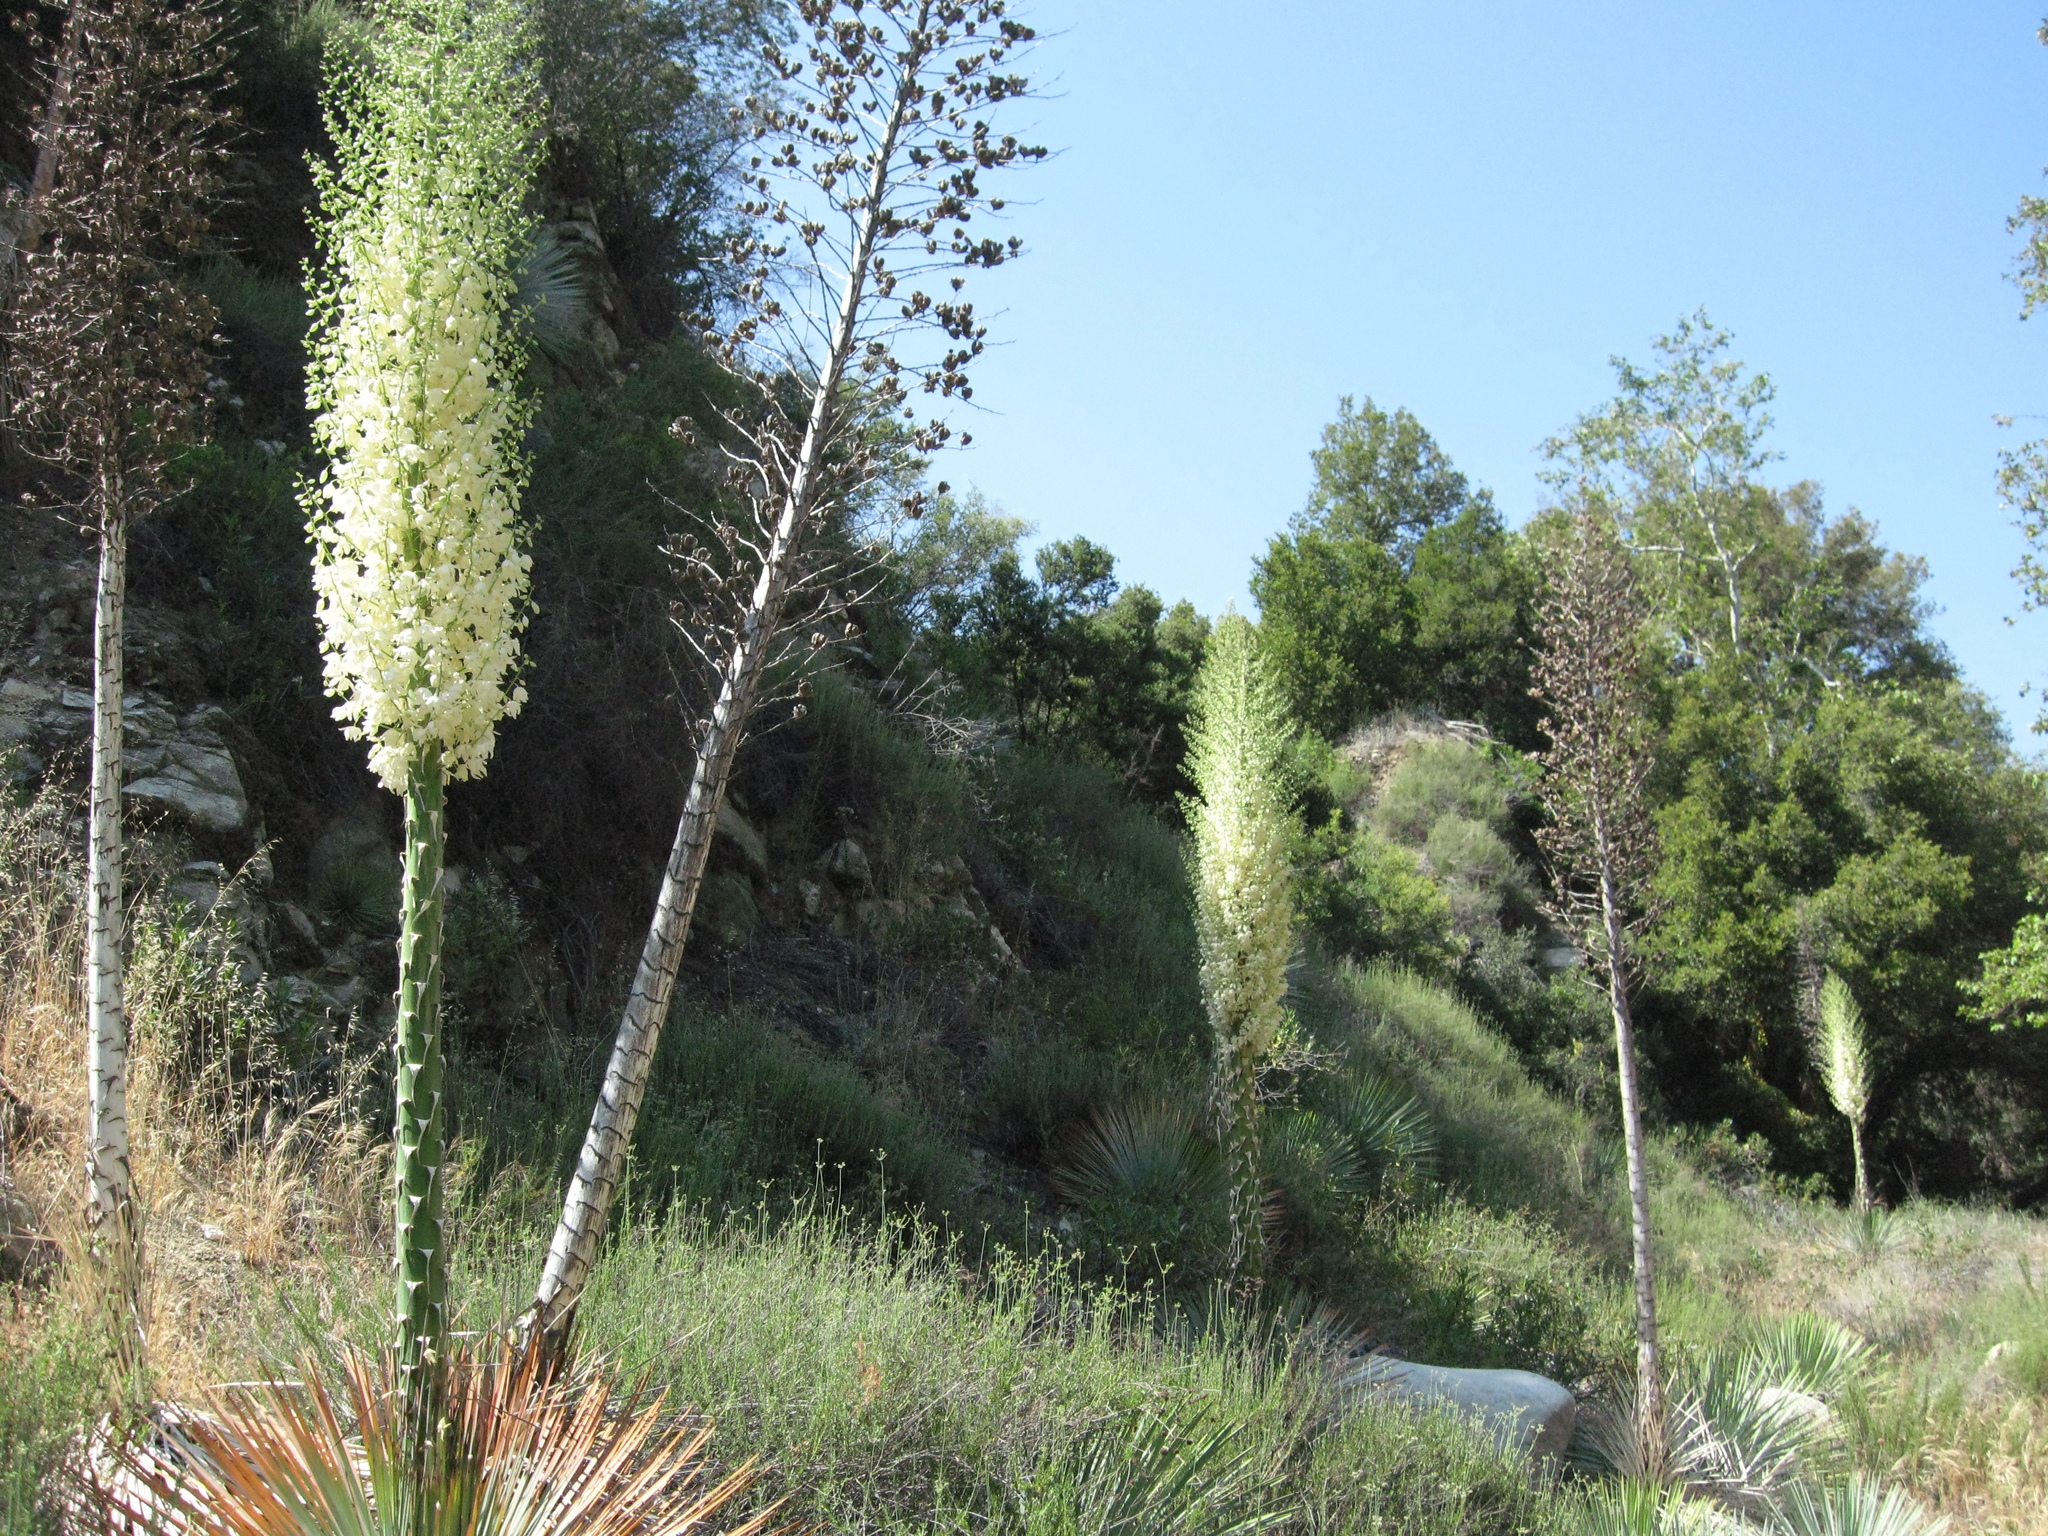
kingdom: Plantae
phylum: Tracheophyta
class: Liliopsida
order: Asparagales
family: Asparagaceae
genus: Hesperoyucca
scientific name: Hesperoyucca whipplei
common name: Our lord's-candle
